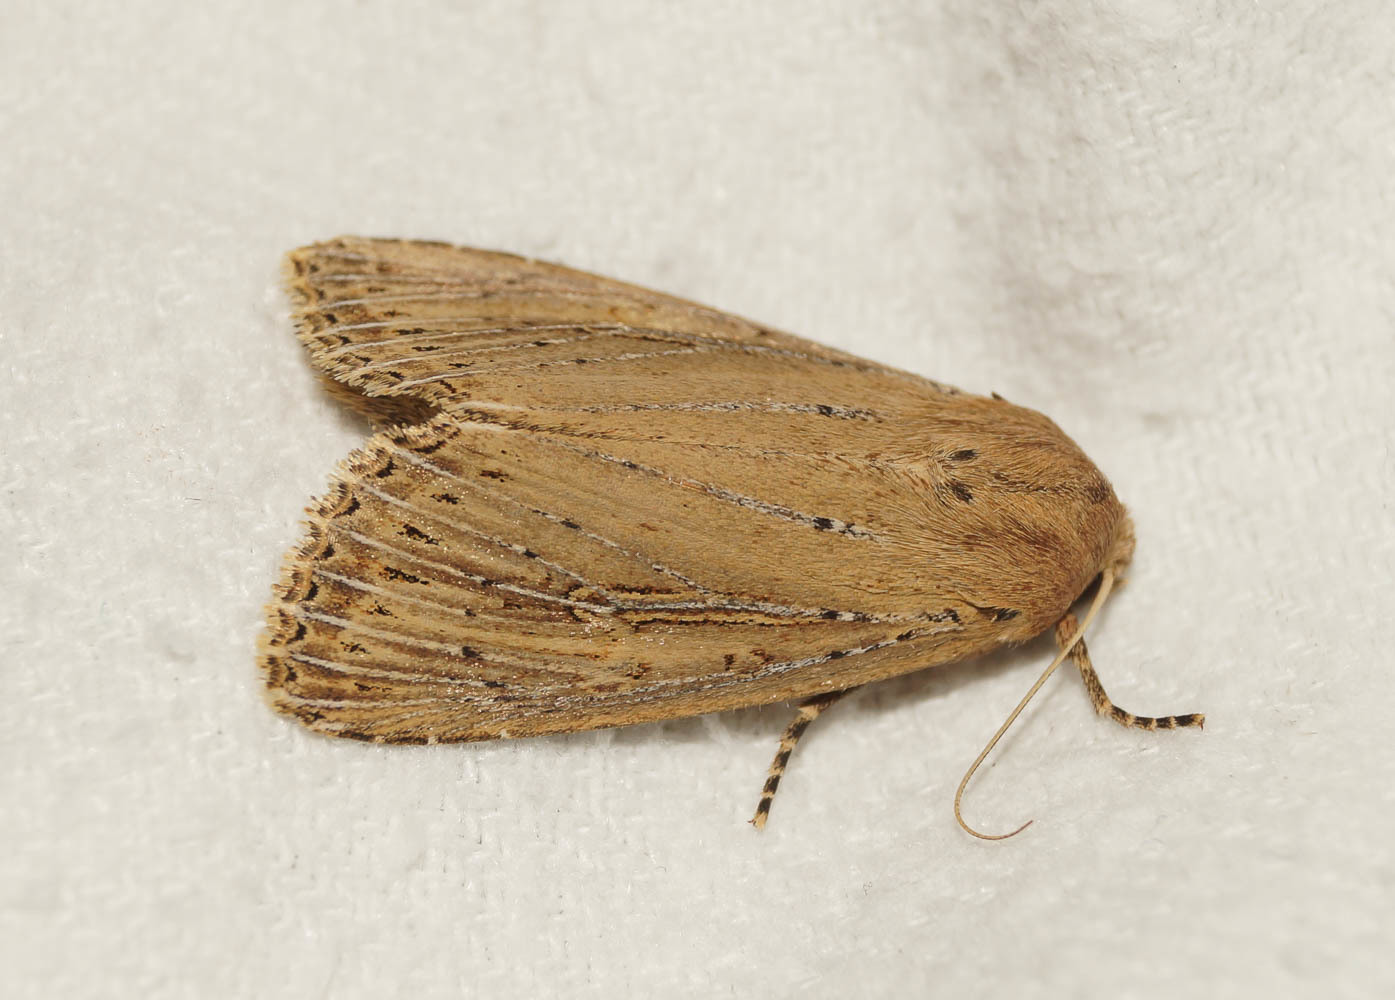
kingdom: Animalia
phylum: Arthropoda
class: Insecta
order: Lepidoptera
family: Noctuidae
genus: Nonagria
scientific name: Nonagria typhae
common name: Bulrush wainscot
